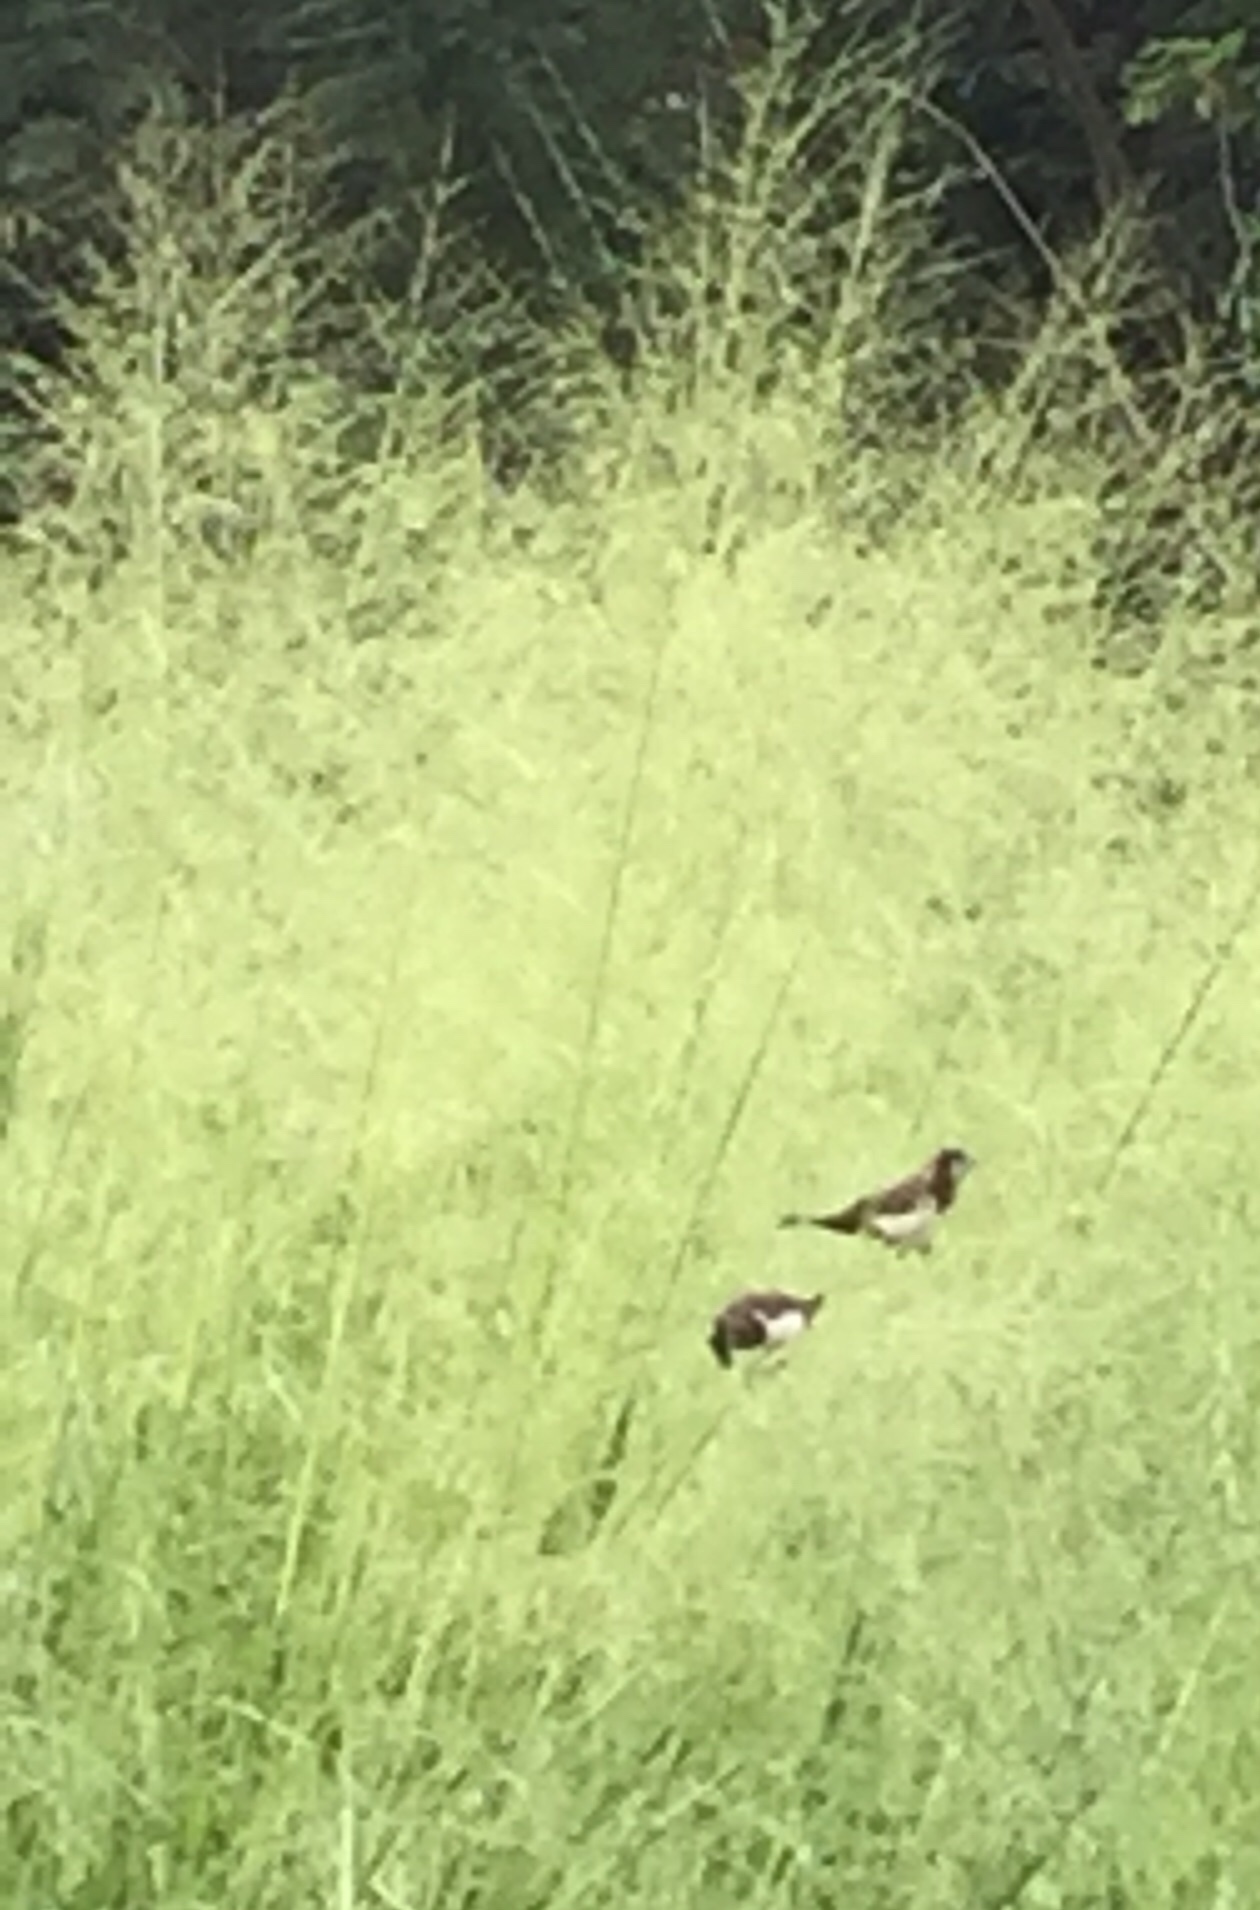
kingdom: Animalia
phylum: Chordata
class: Aves
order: Passeriformes
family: Estrildidae
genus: Lonchura
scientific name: Lonchura striata
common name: White-rumped munia
